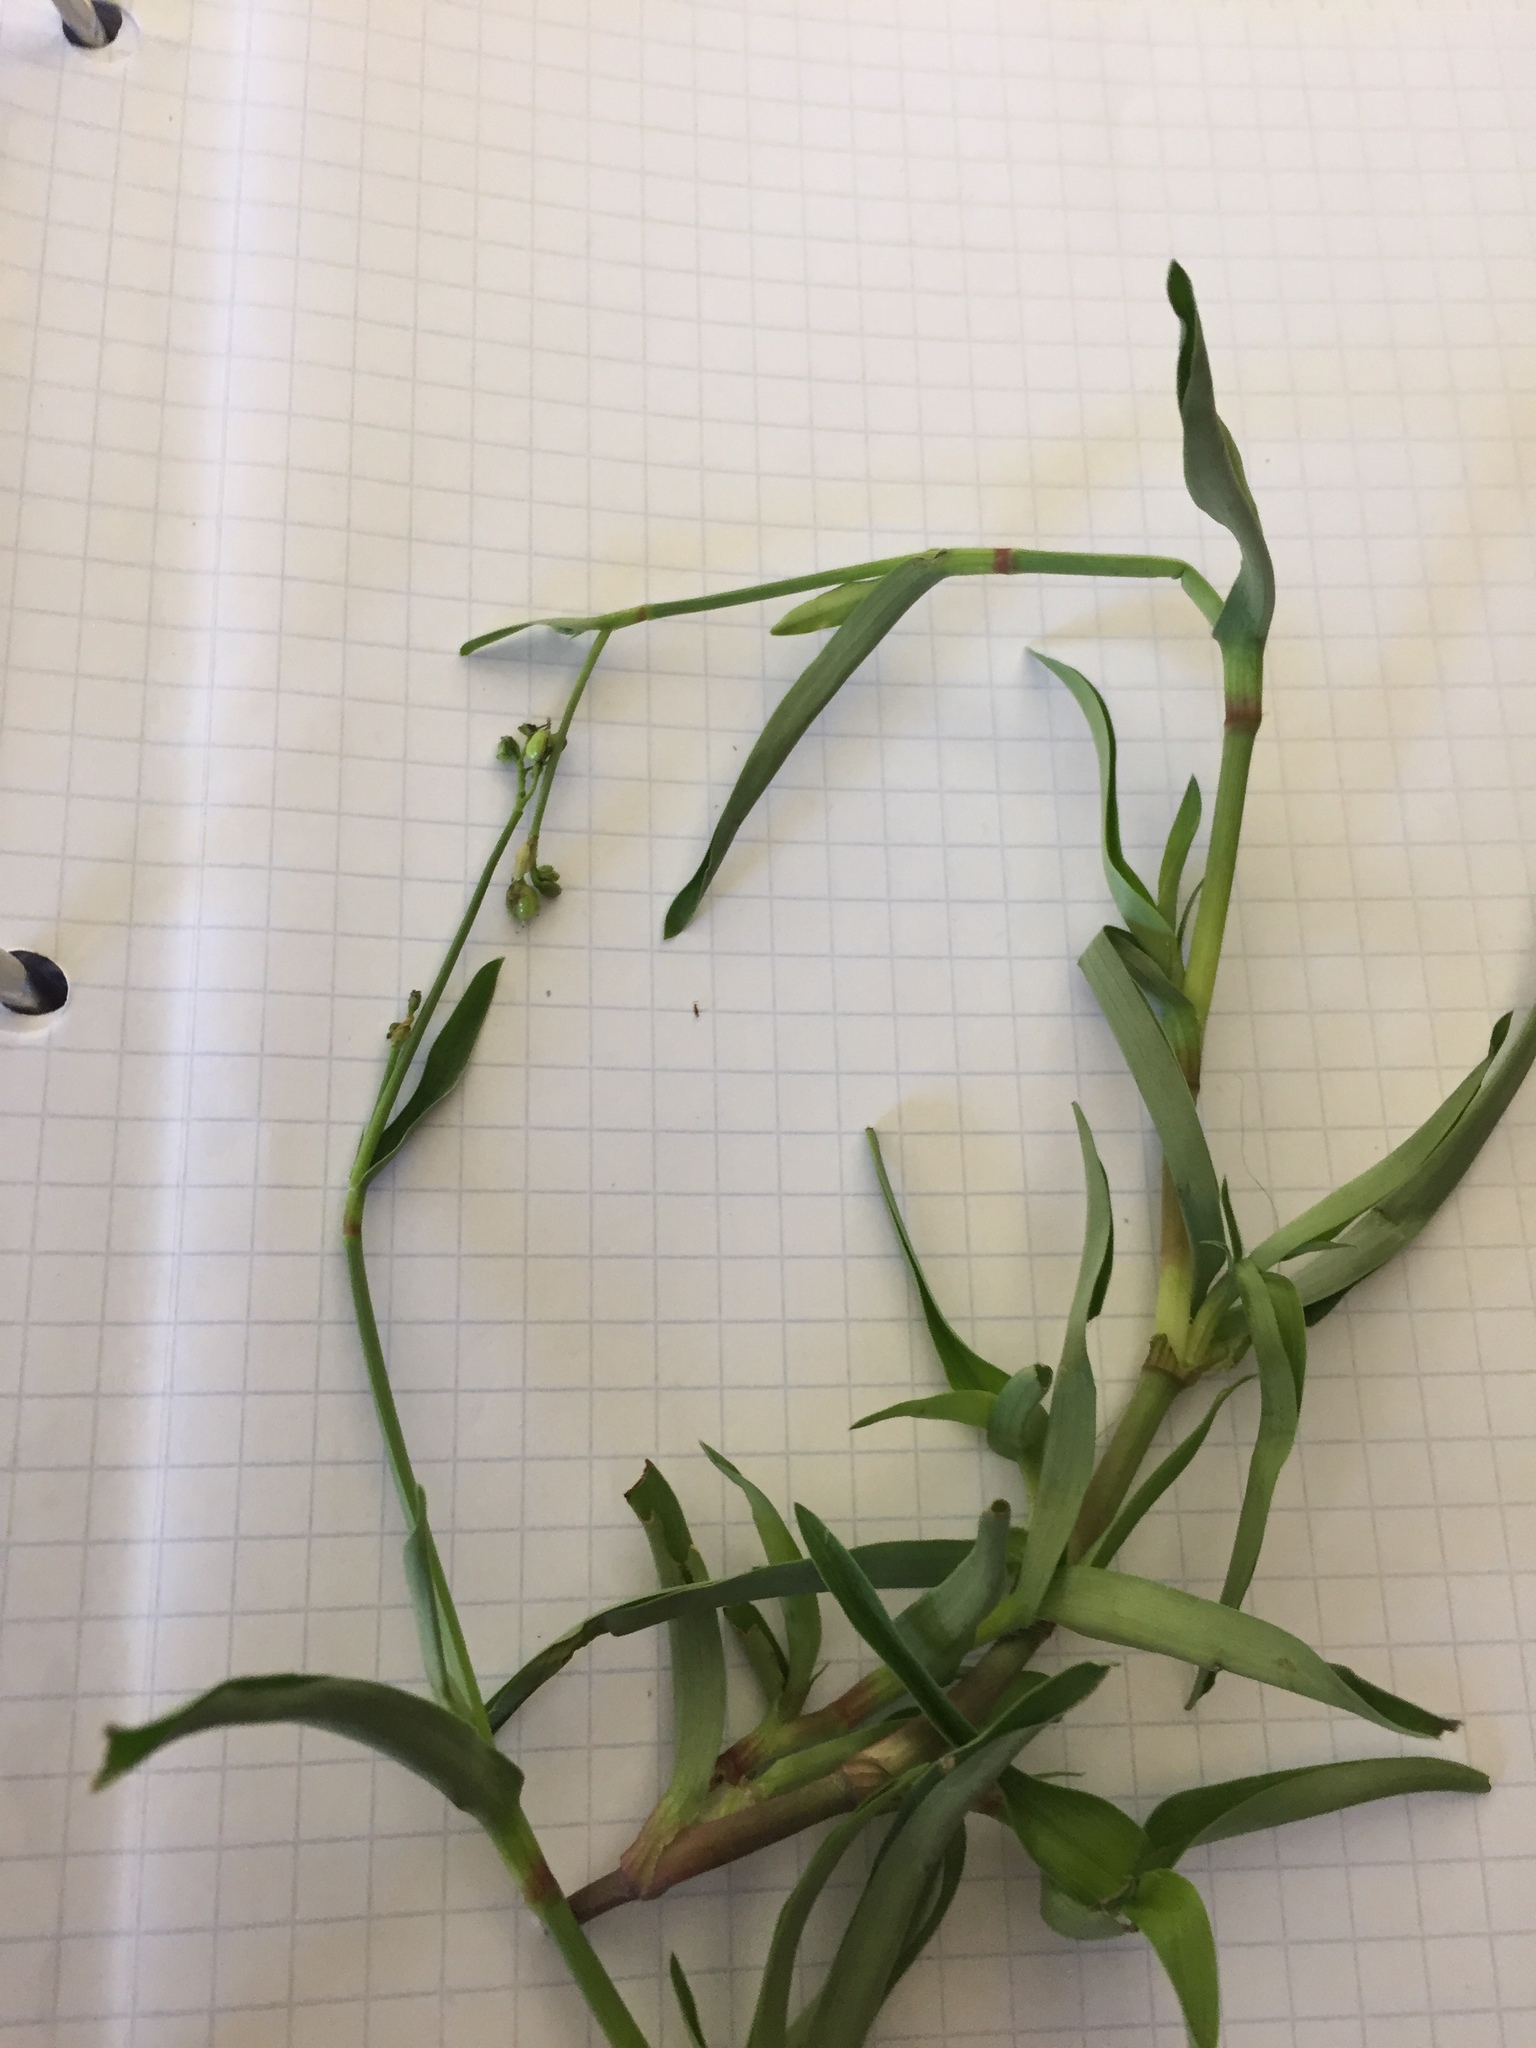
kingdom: Plantae
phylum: Tracheophyta
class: Liliopsida
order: Commelinales
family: Commelinaceae
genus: Murdannia
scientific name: Murdannia nudiflora
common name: Nakedstem dewflower
